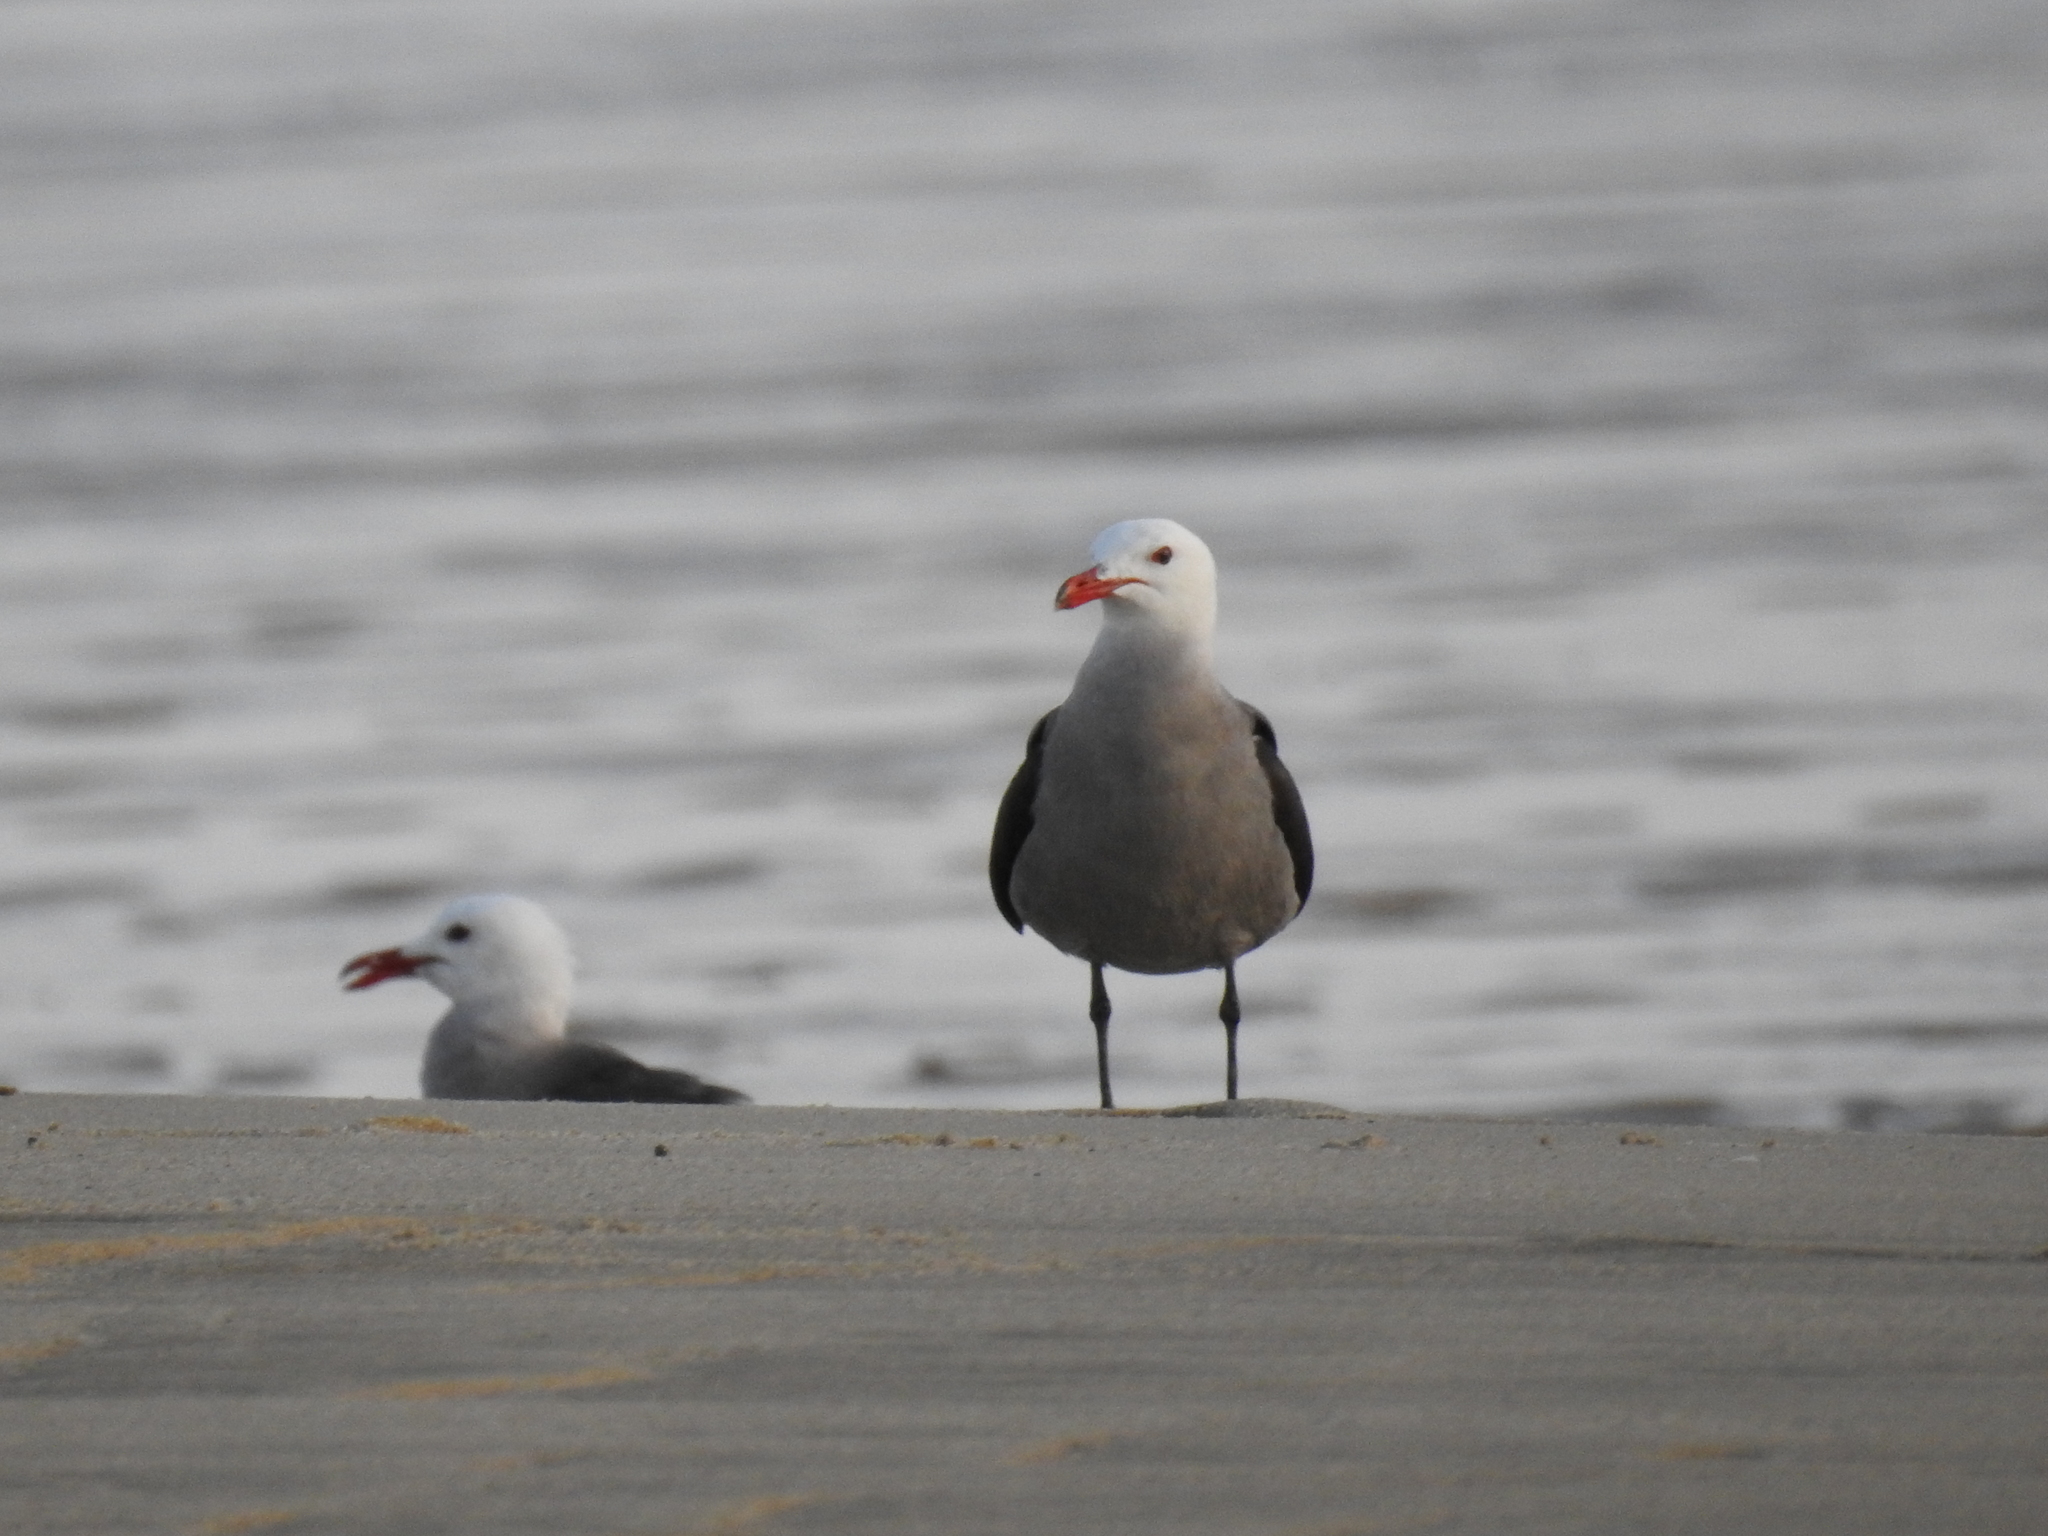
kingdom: Animalia
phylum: Chordata
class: Aves
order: Charadriiformes
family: Laridae
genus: Larus
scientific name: Larus heermanni
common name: Heermann's gull
